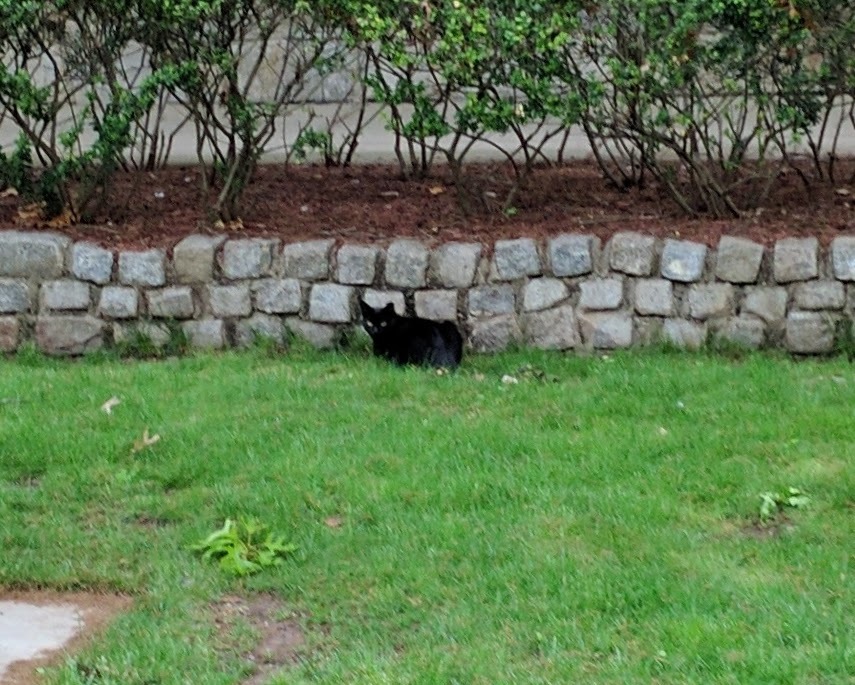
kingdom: Animalia
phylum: Chordata
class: Mammalia
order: Carnivora
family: Felidae
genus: Felis
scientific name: Felis catus
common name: Domestic cat
